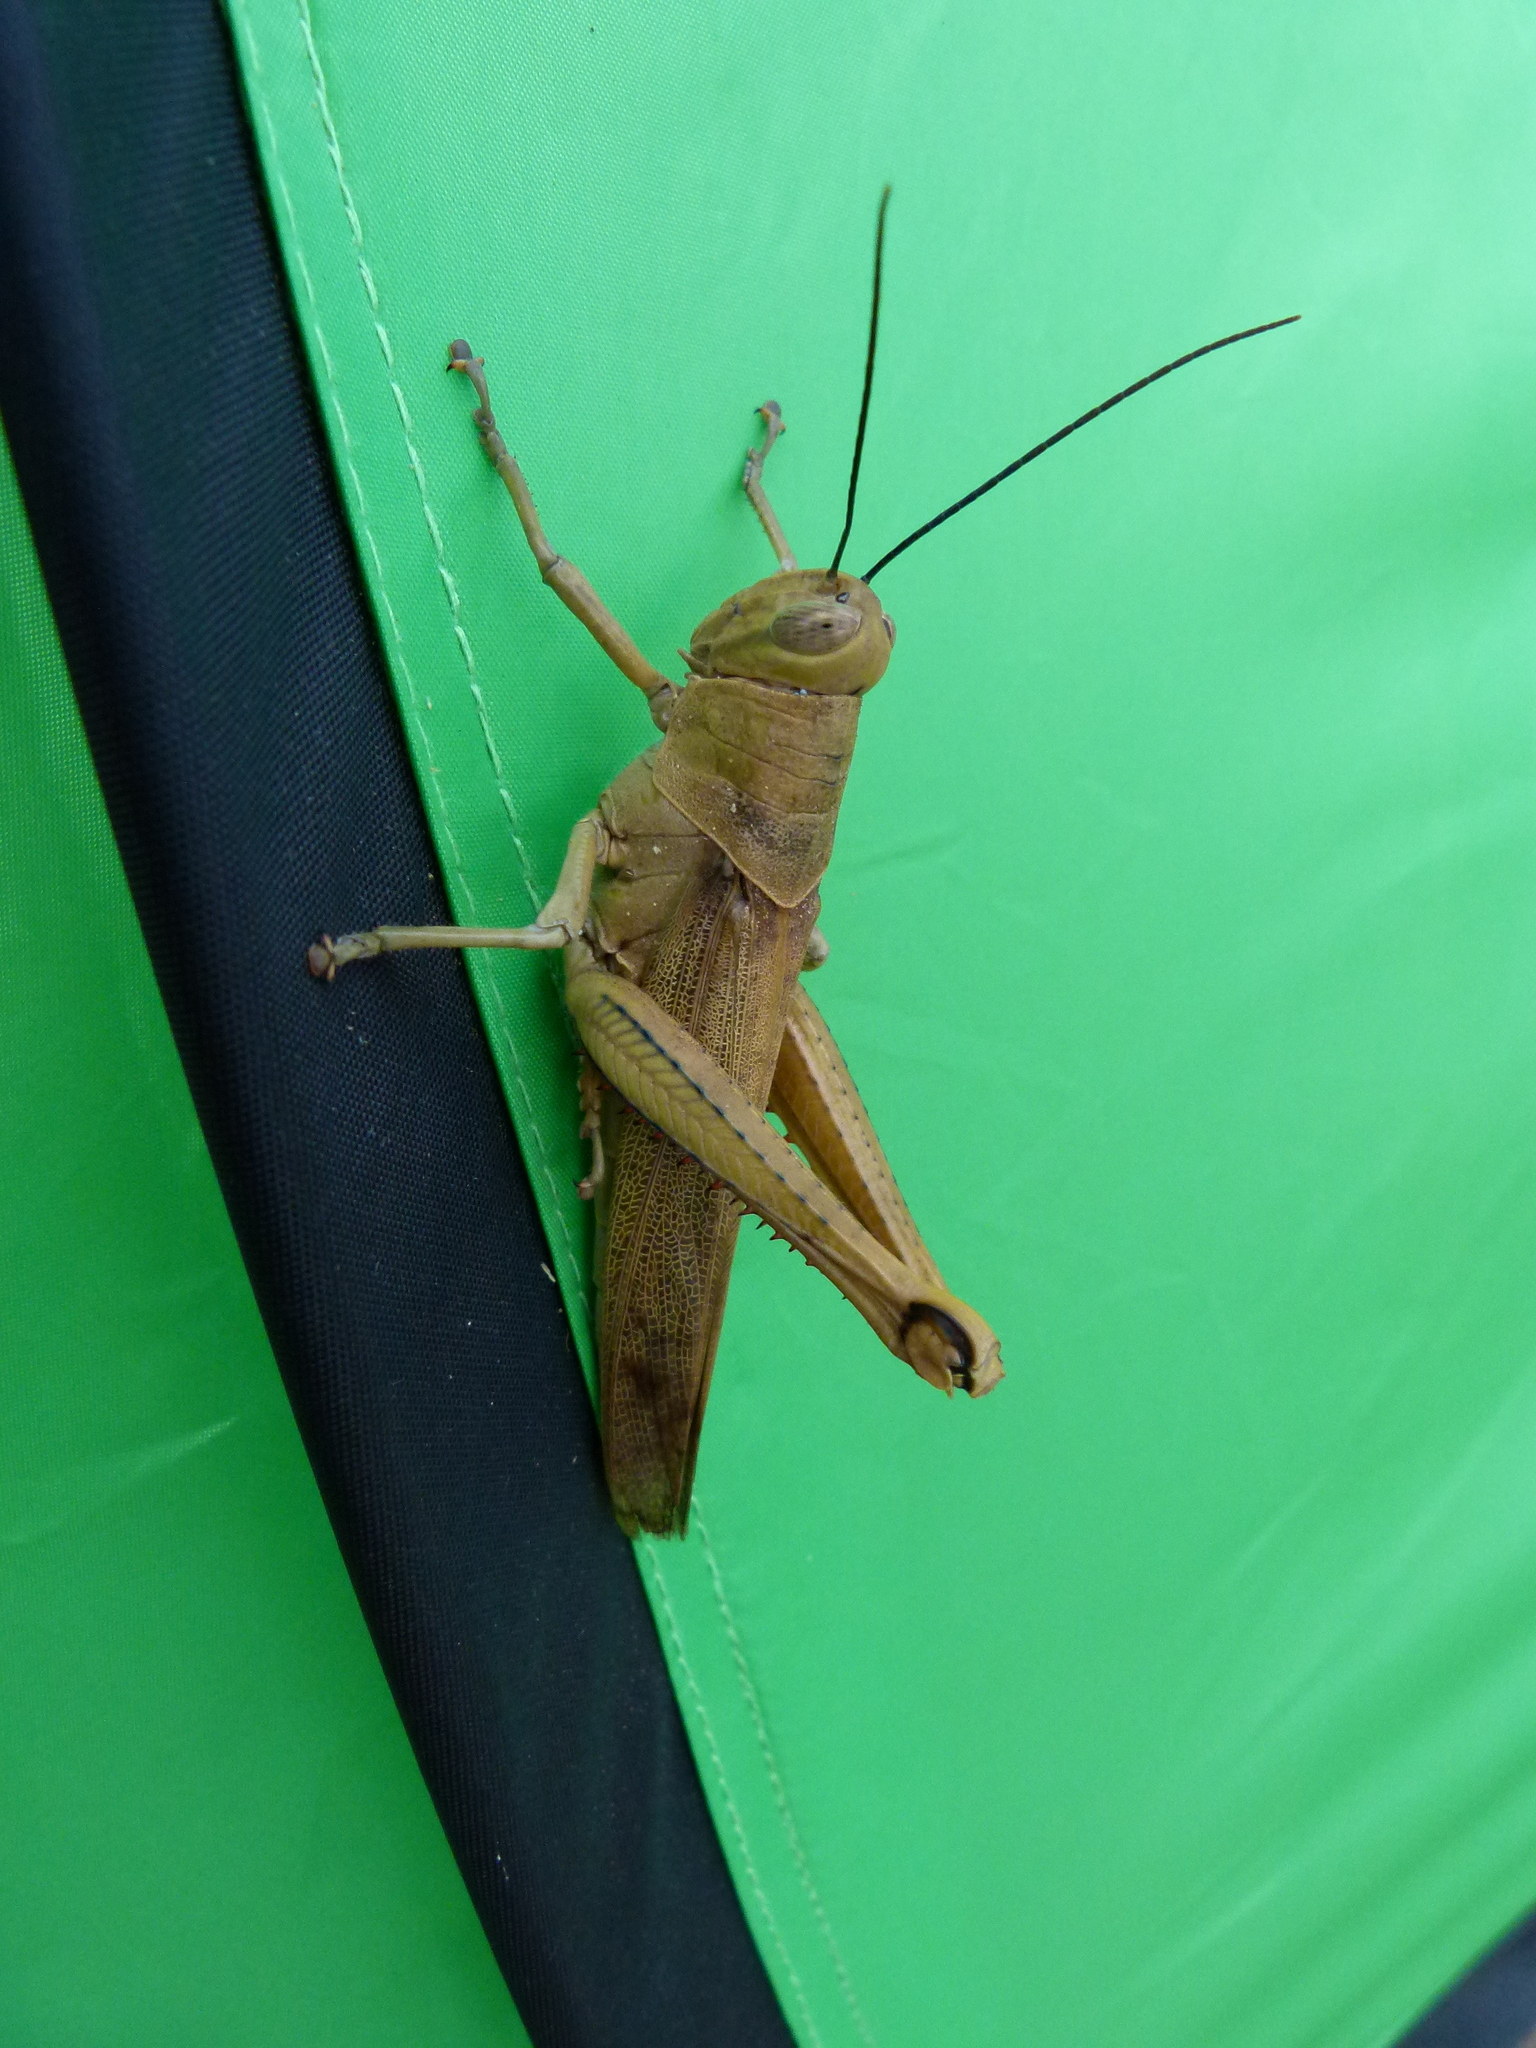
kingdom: Animalia
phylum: Arthropoda
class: Insecta
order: Orthoptera
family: Acrididae
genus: Valanga
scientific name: Valanga irregularis
